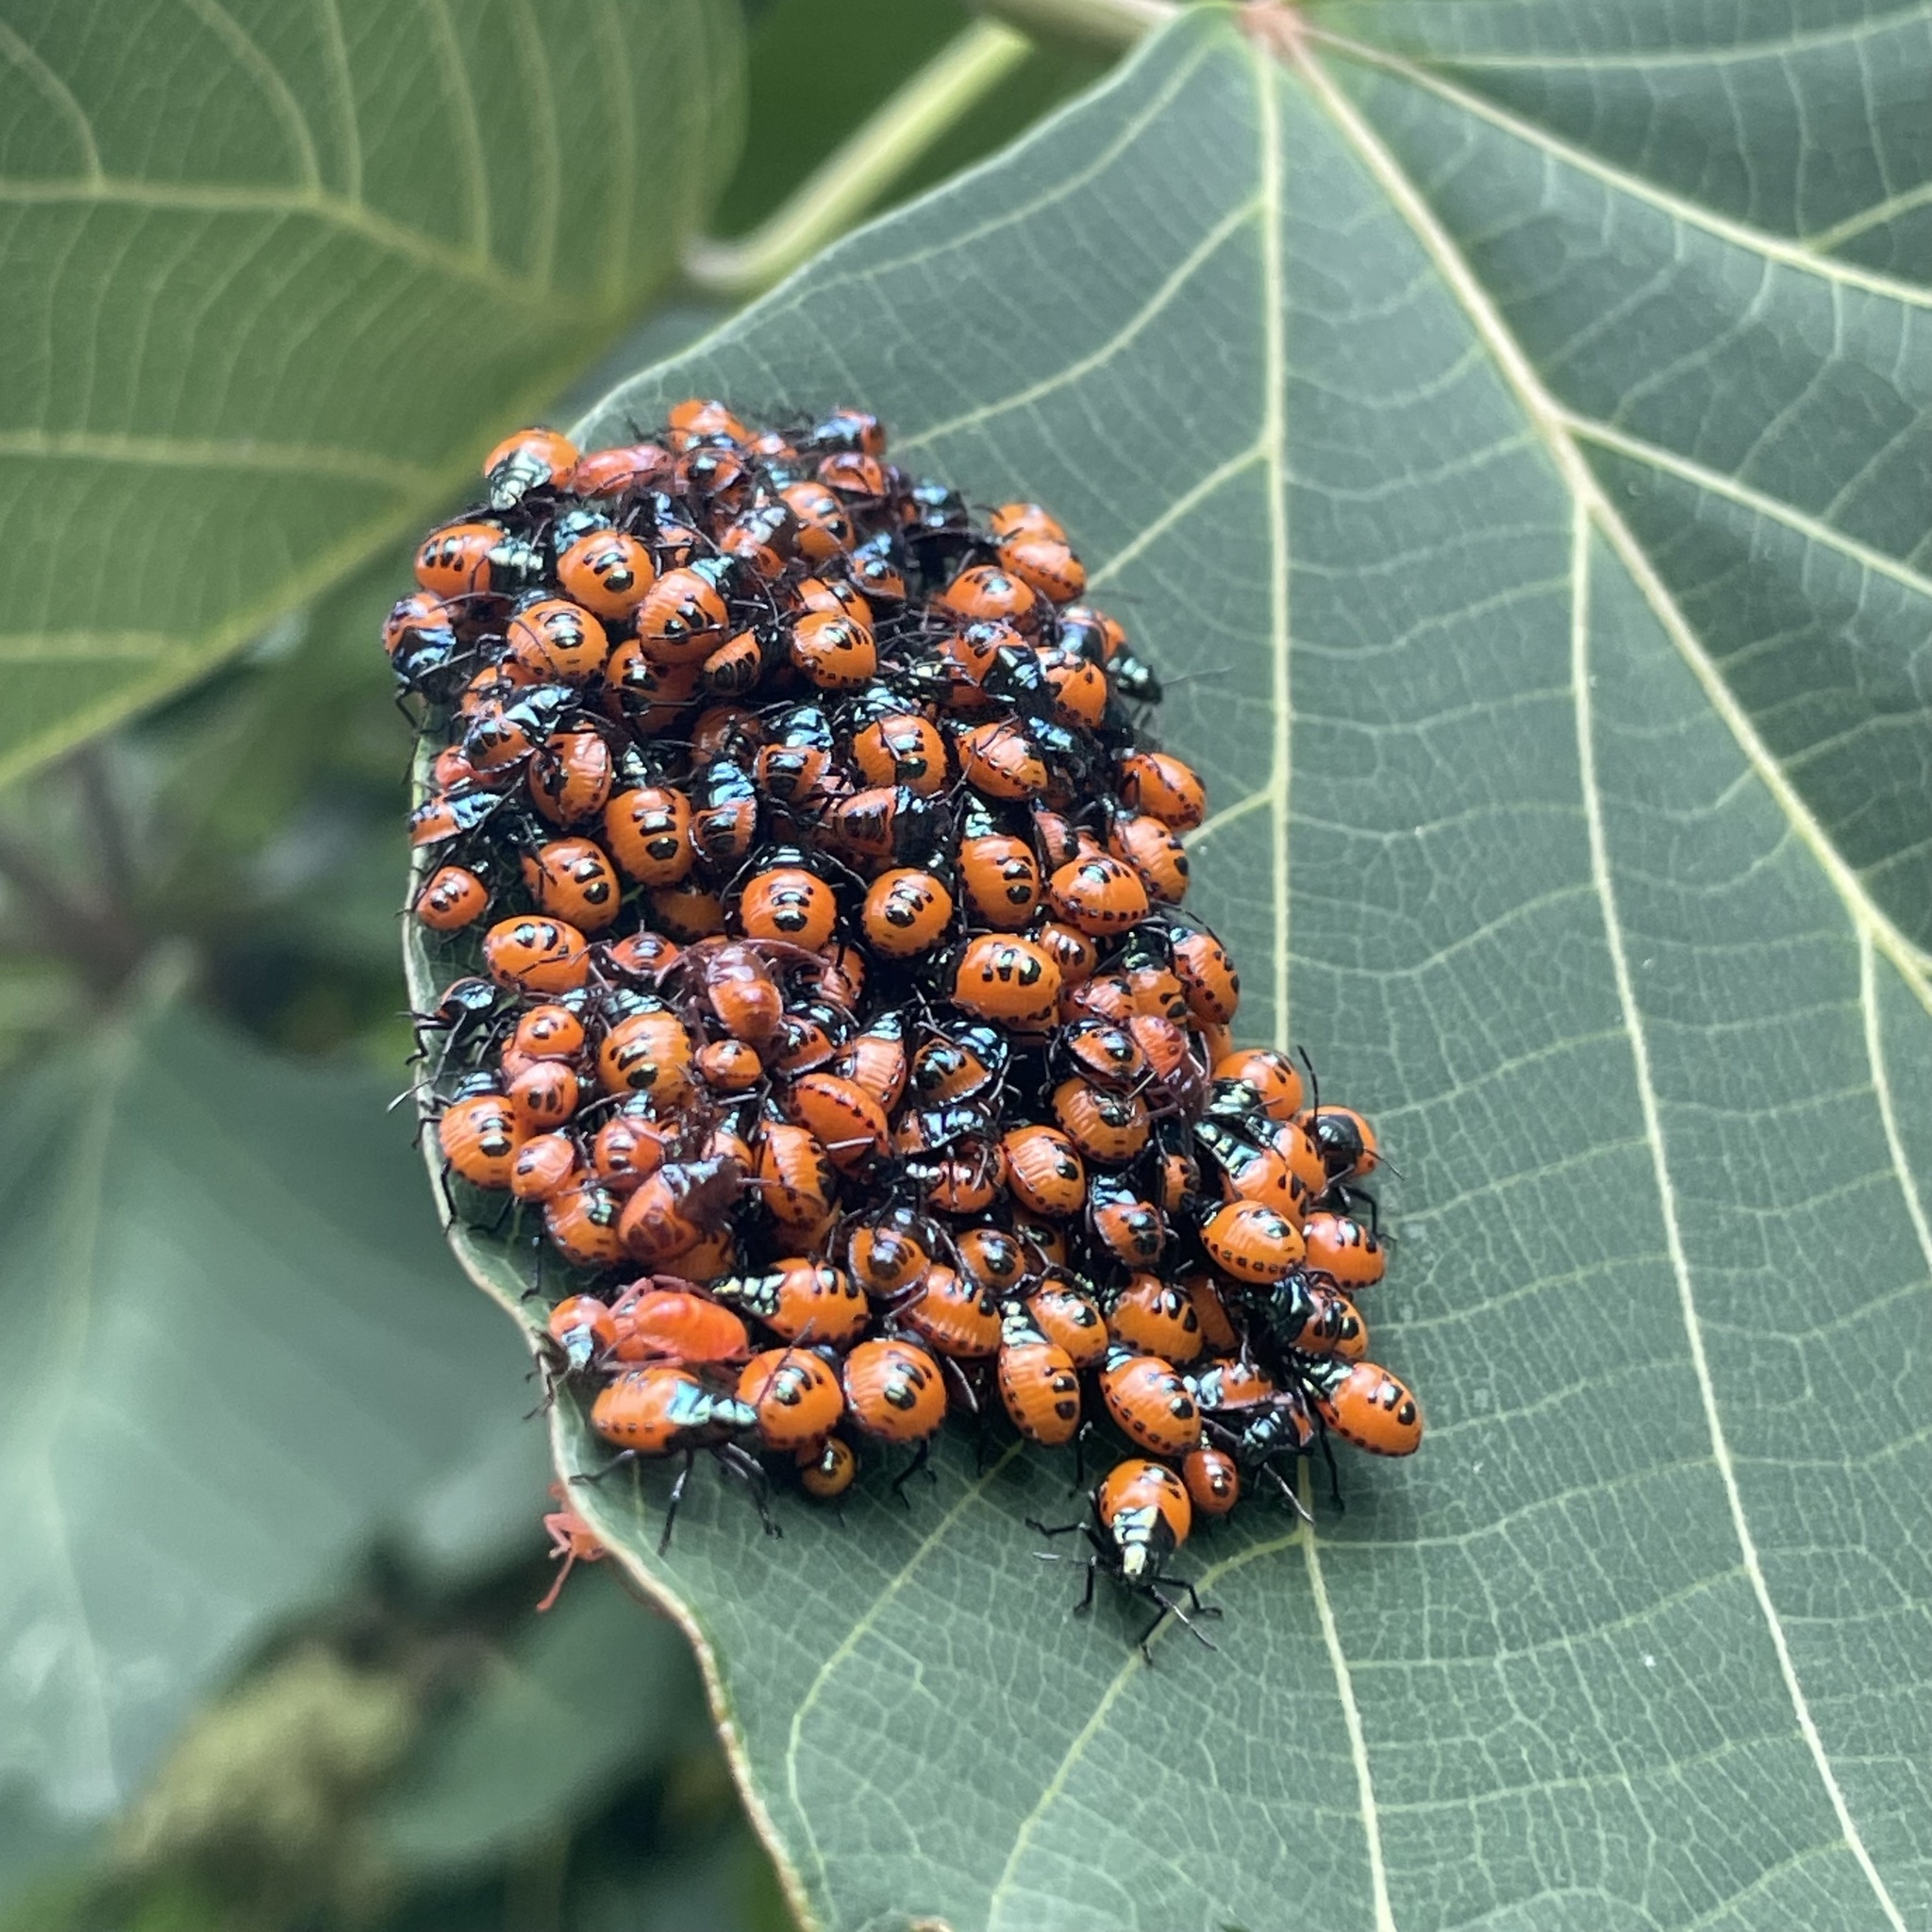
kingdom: Animalia
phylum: Arthropoda
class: Insecta
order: Hemiptera
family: Scutelleridae
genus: Cantao
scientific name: Cantao ocellatus
